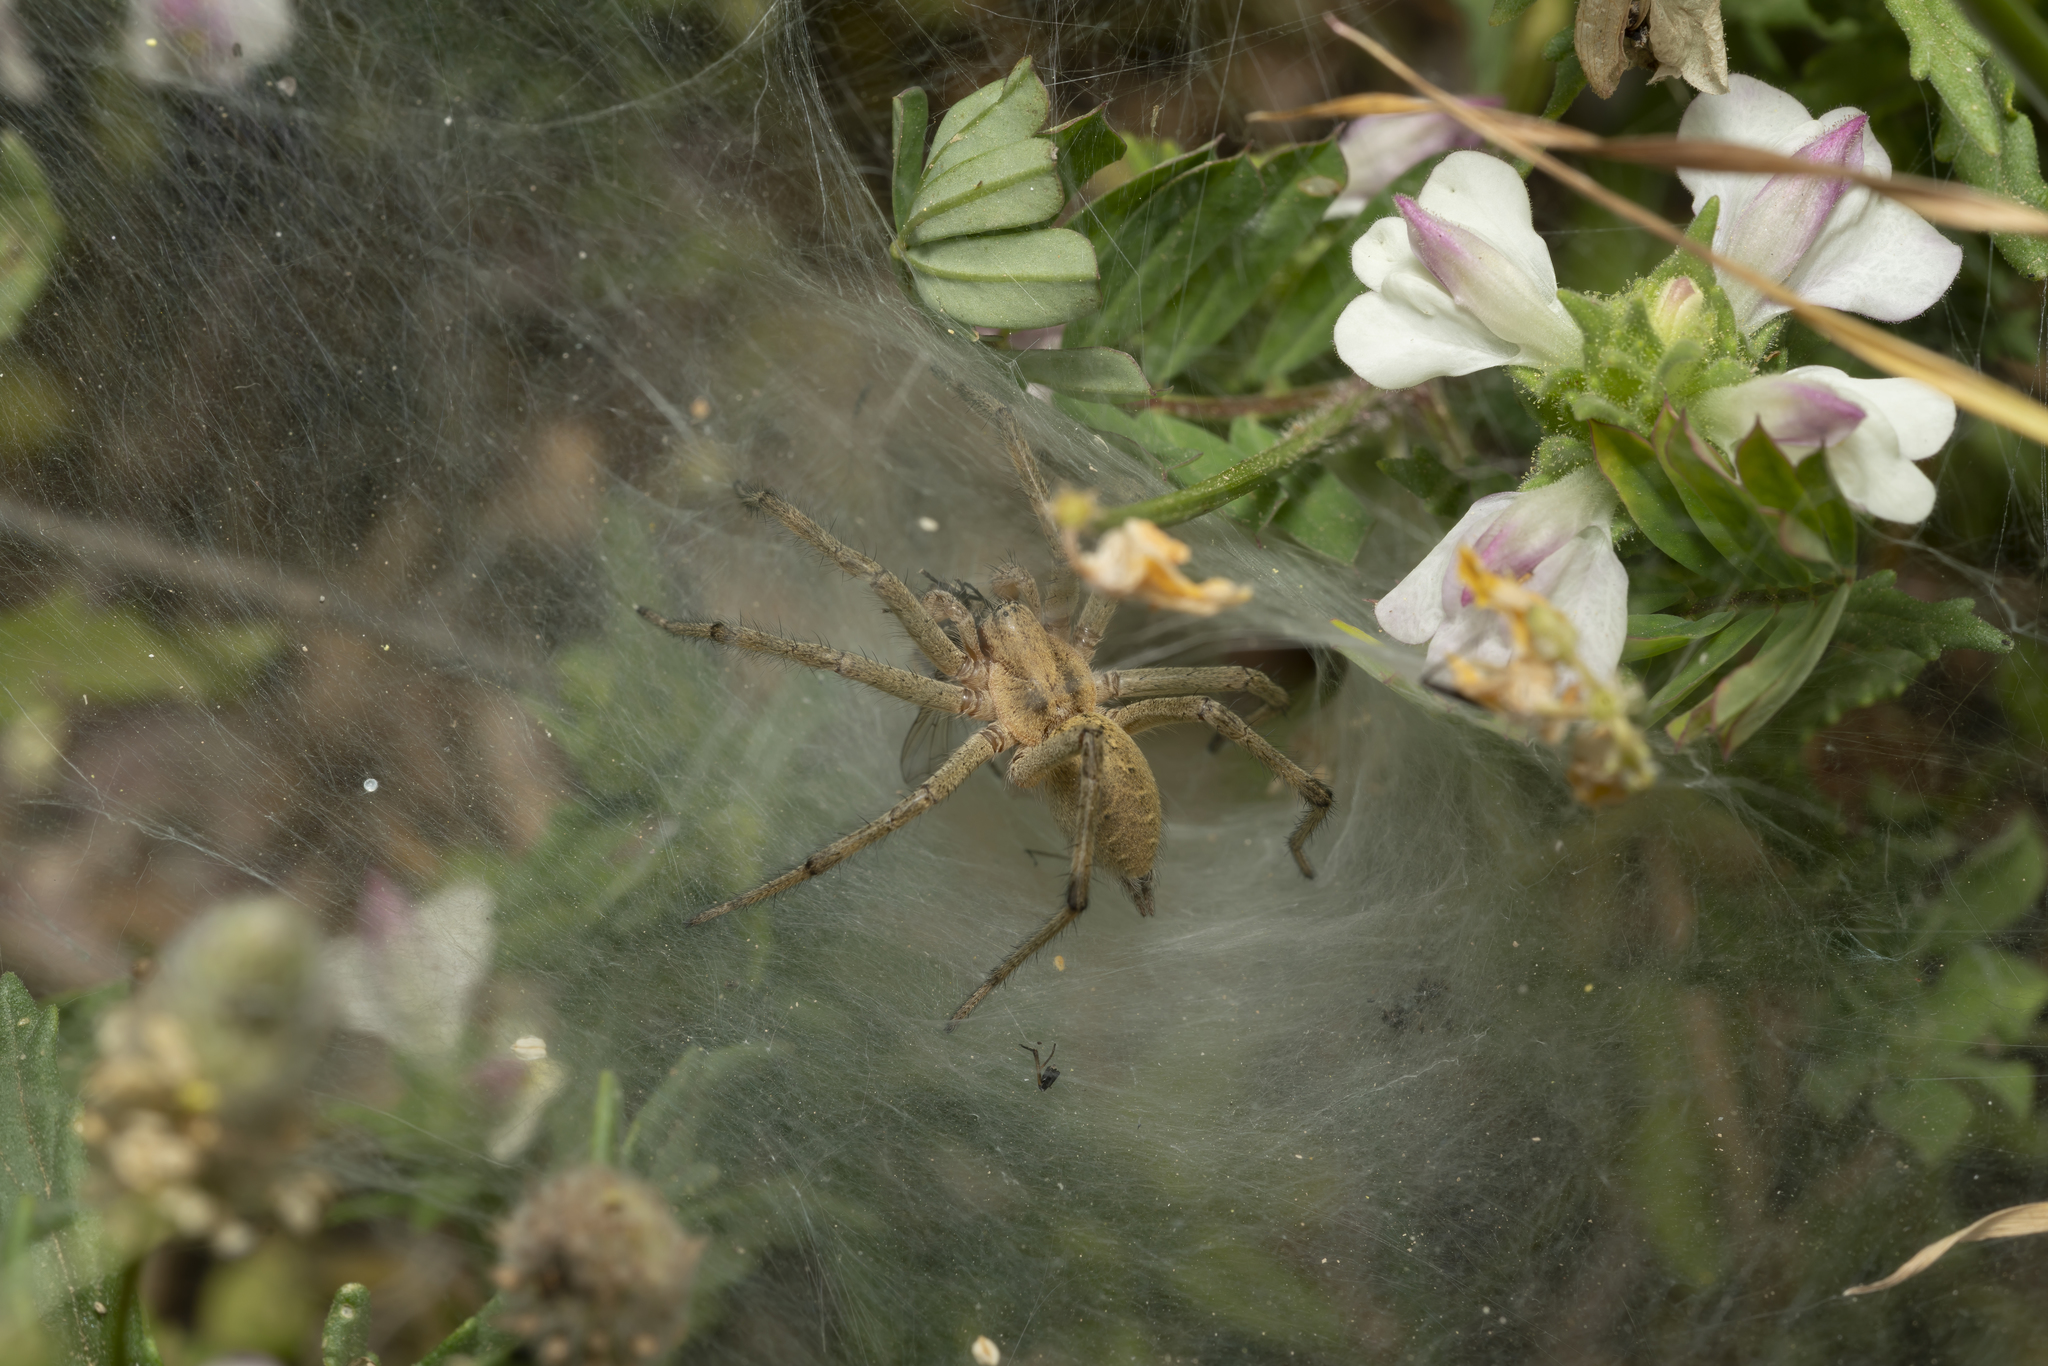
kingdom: Animalia
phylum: Arthropoda
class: Arachnida
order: Araneae
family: Agelenidae
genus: Agelena
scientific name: Agelena orientalis
